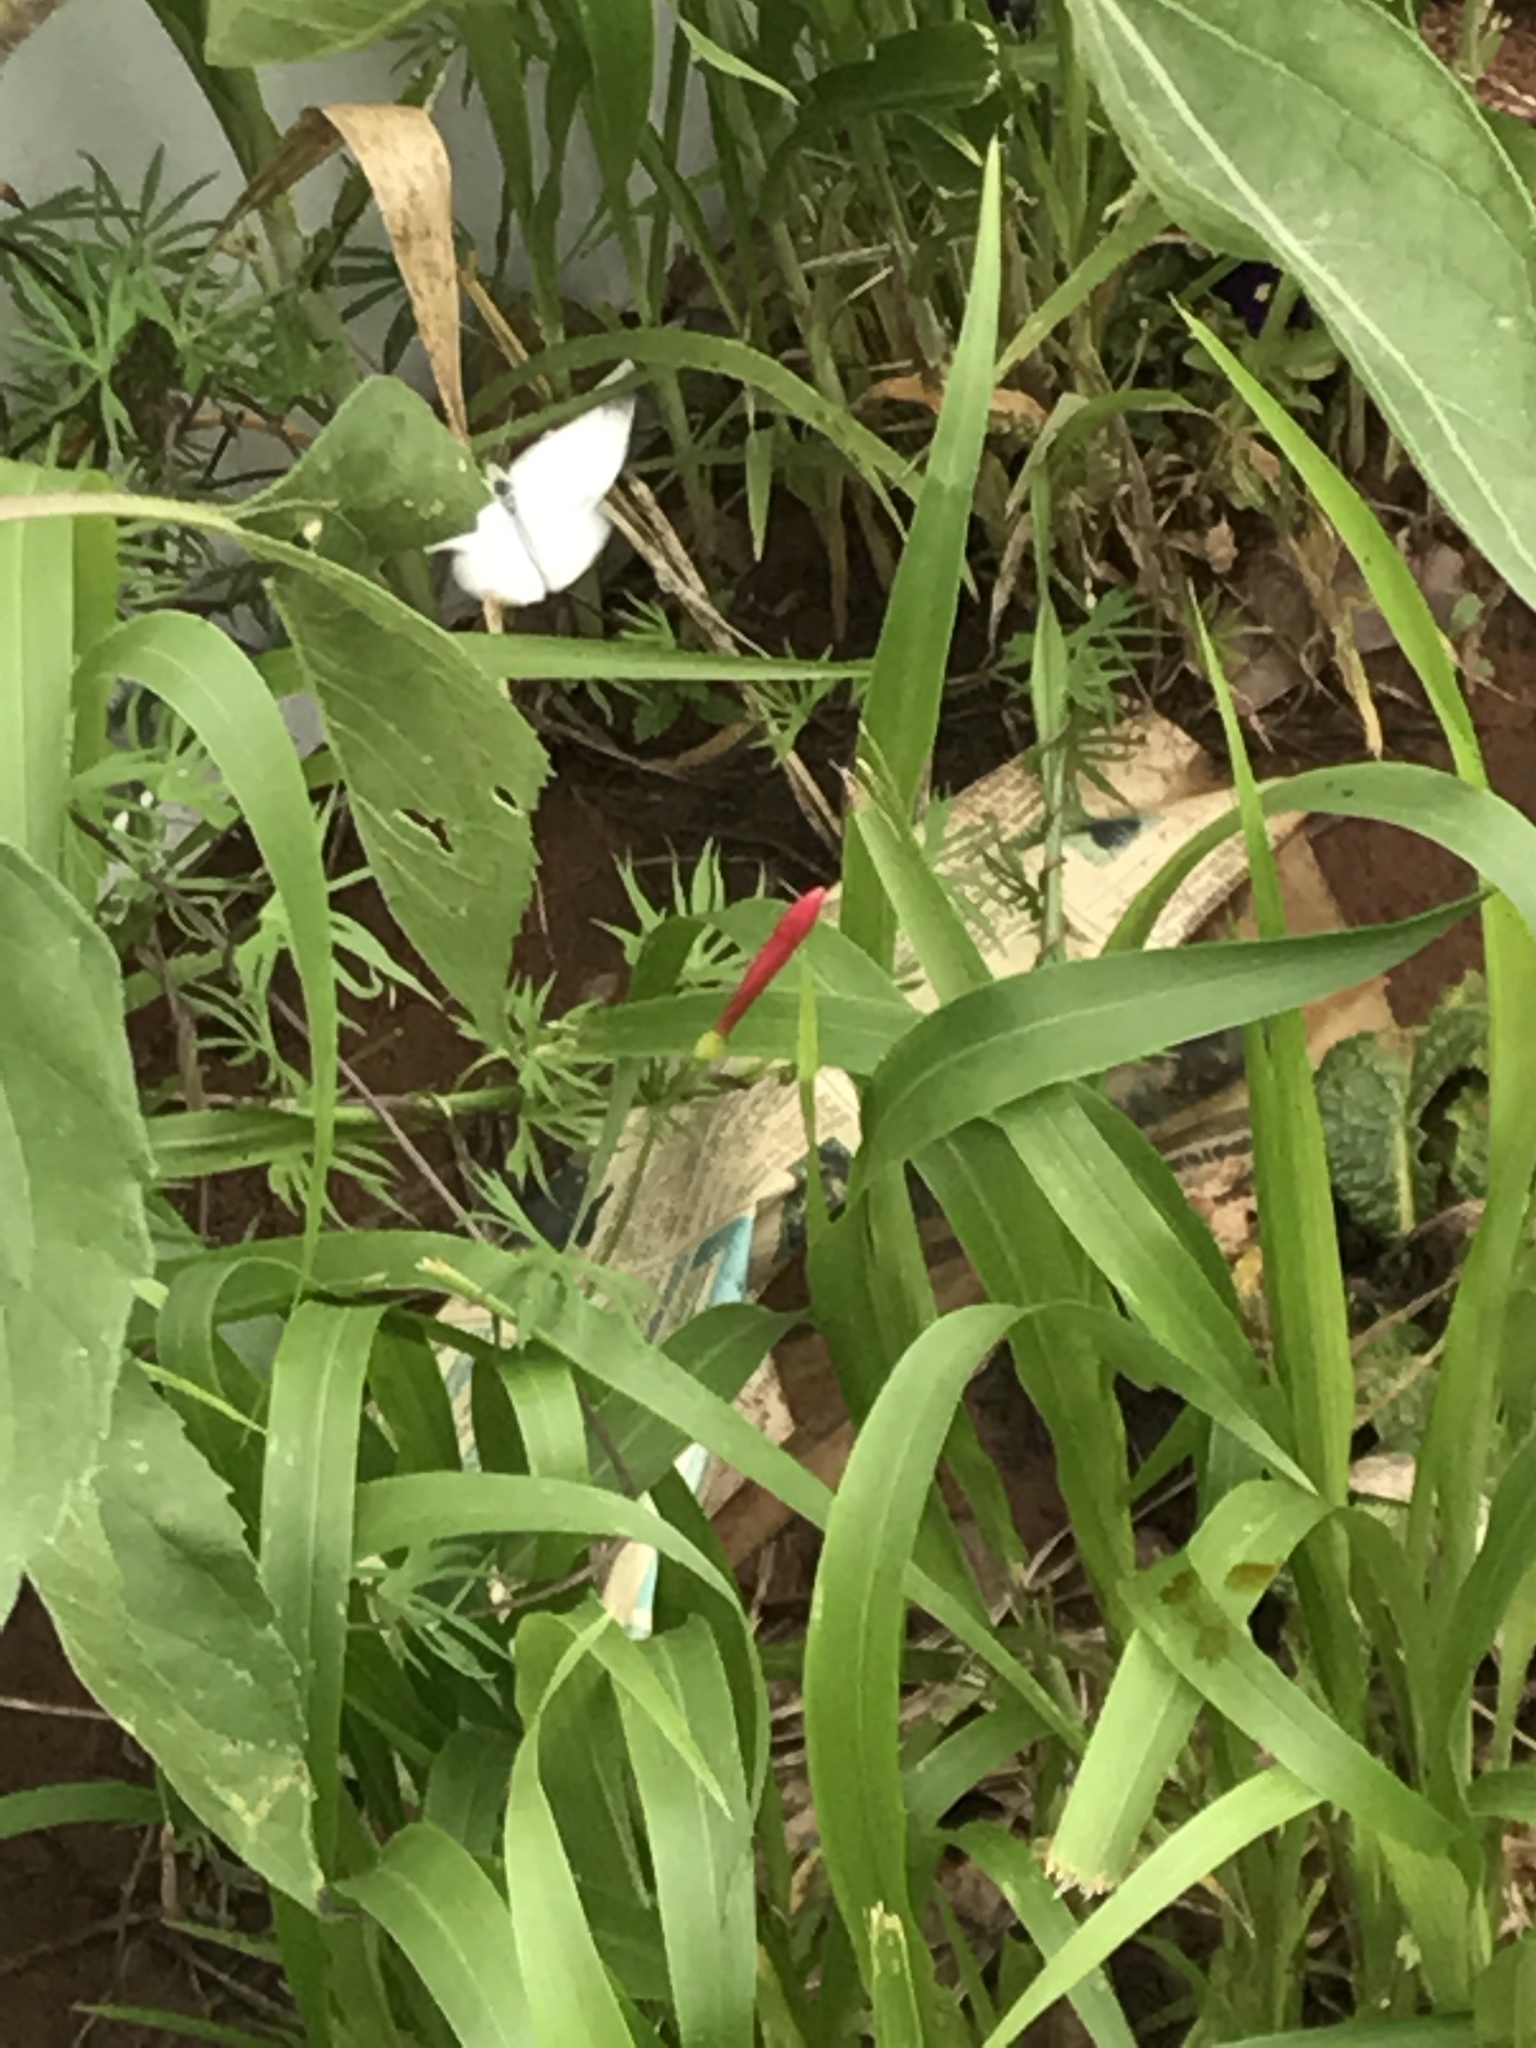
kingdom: Animalia
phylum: Arthropoda
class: Insecta
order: Lepidoptera
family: Pieridae
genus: Pieris
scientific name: Pieris rapae
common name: Small white
